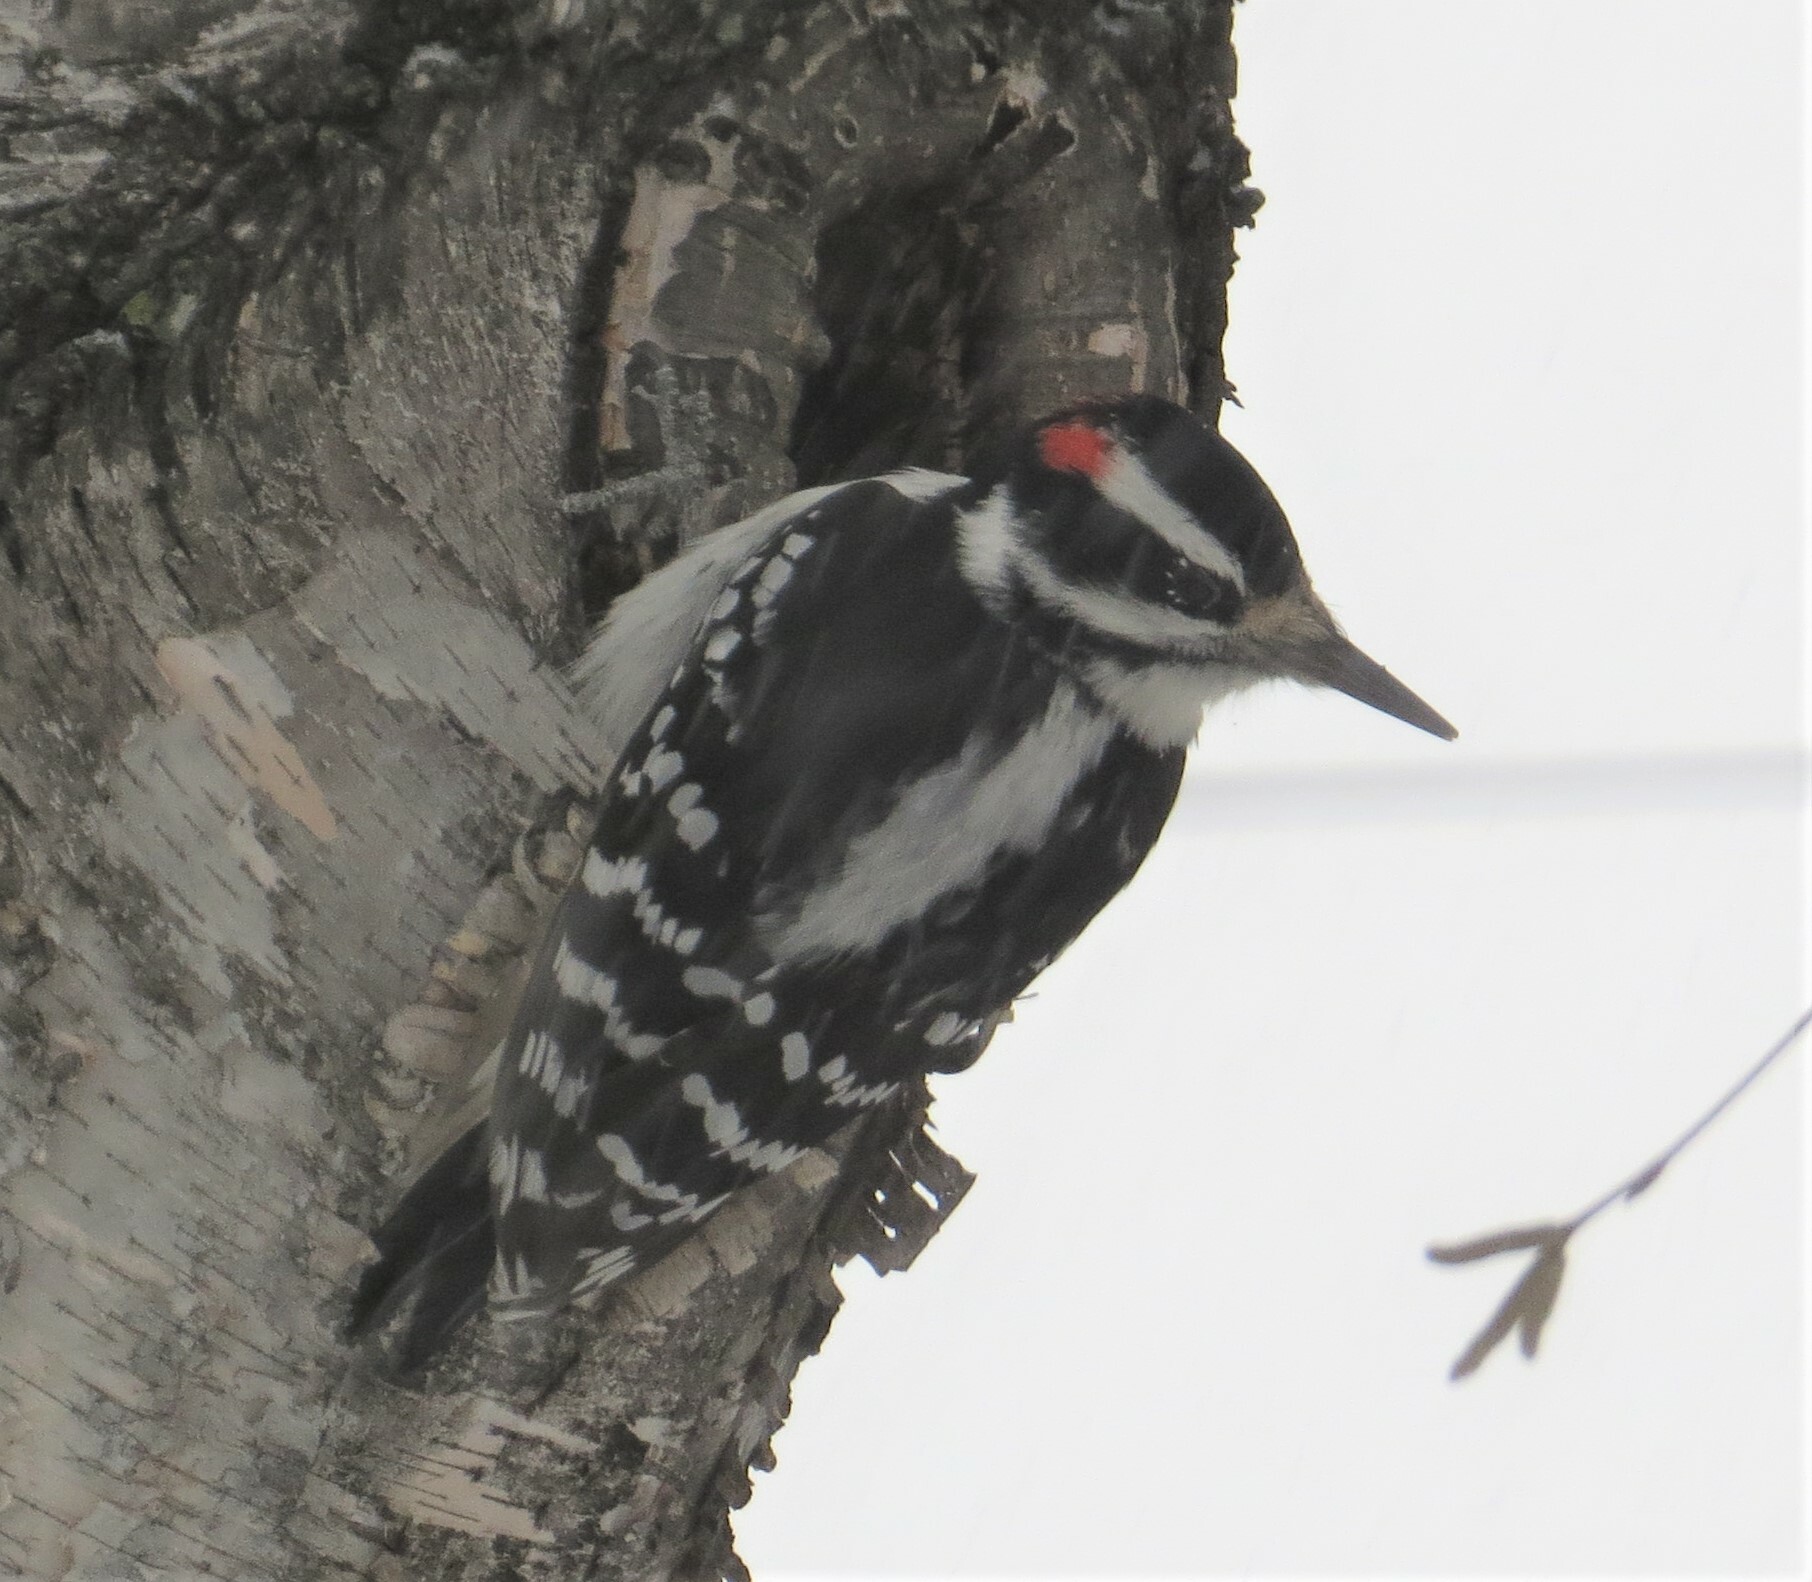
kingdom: Animalia
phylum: Chordata
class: Aves
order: Piciformes
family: Picidae
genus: Leuconotopicus
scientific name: Leuconotopicus villosus
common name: Hairy woodpecker
